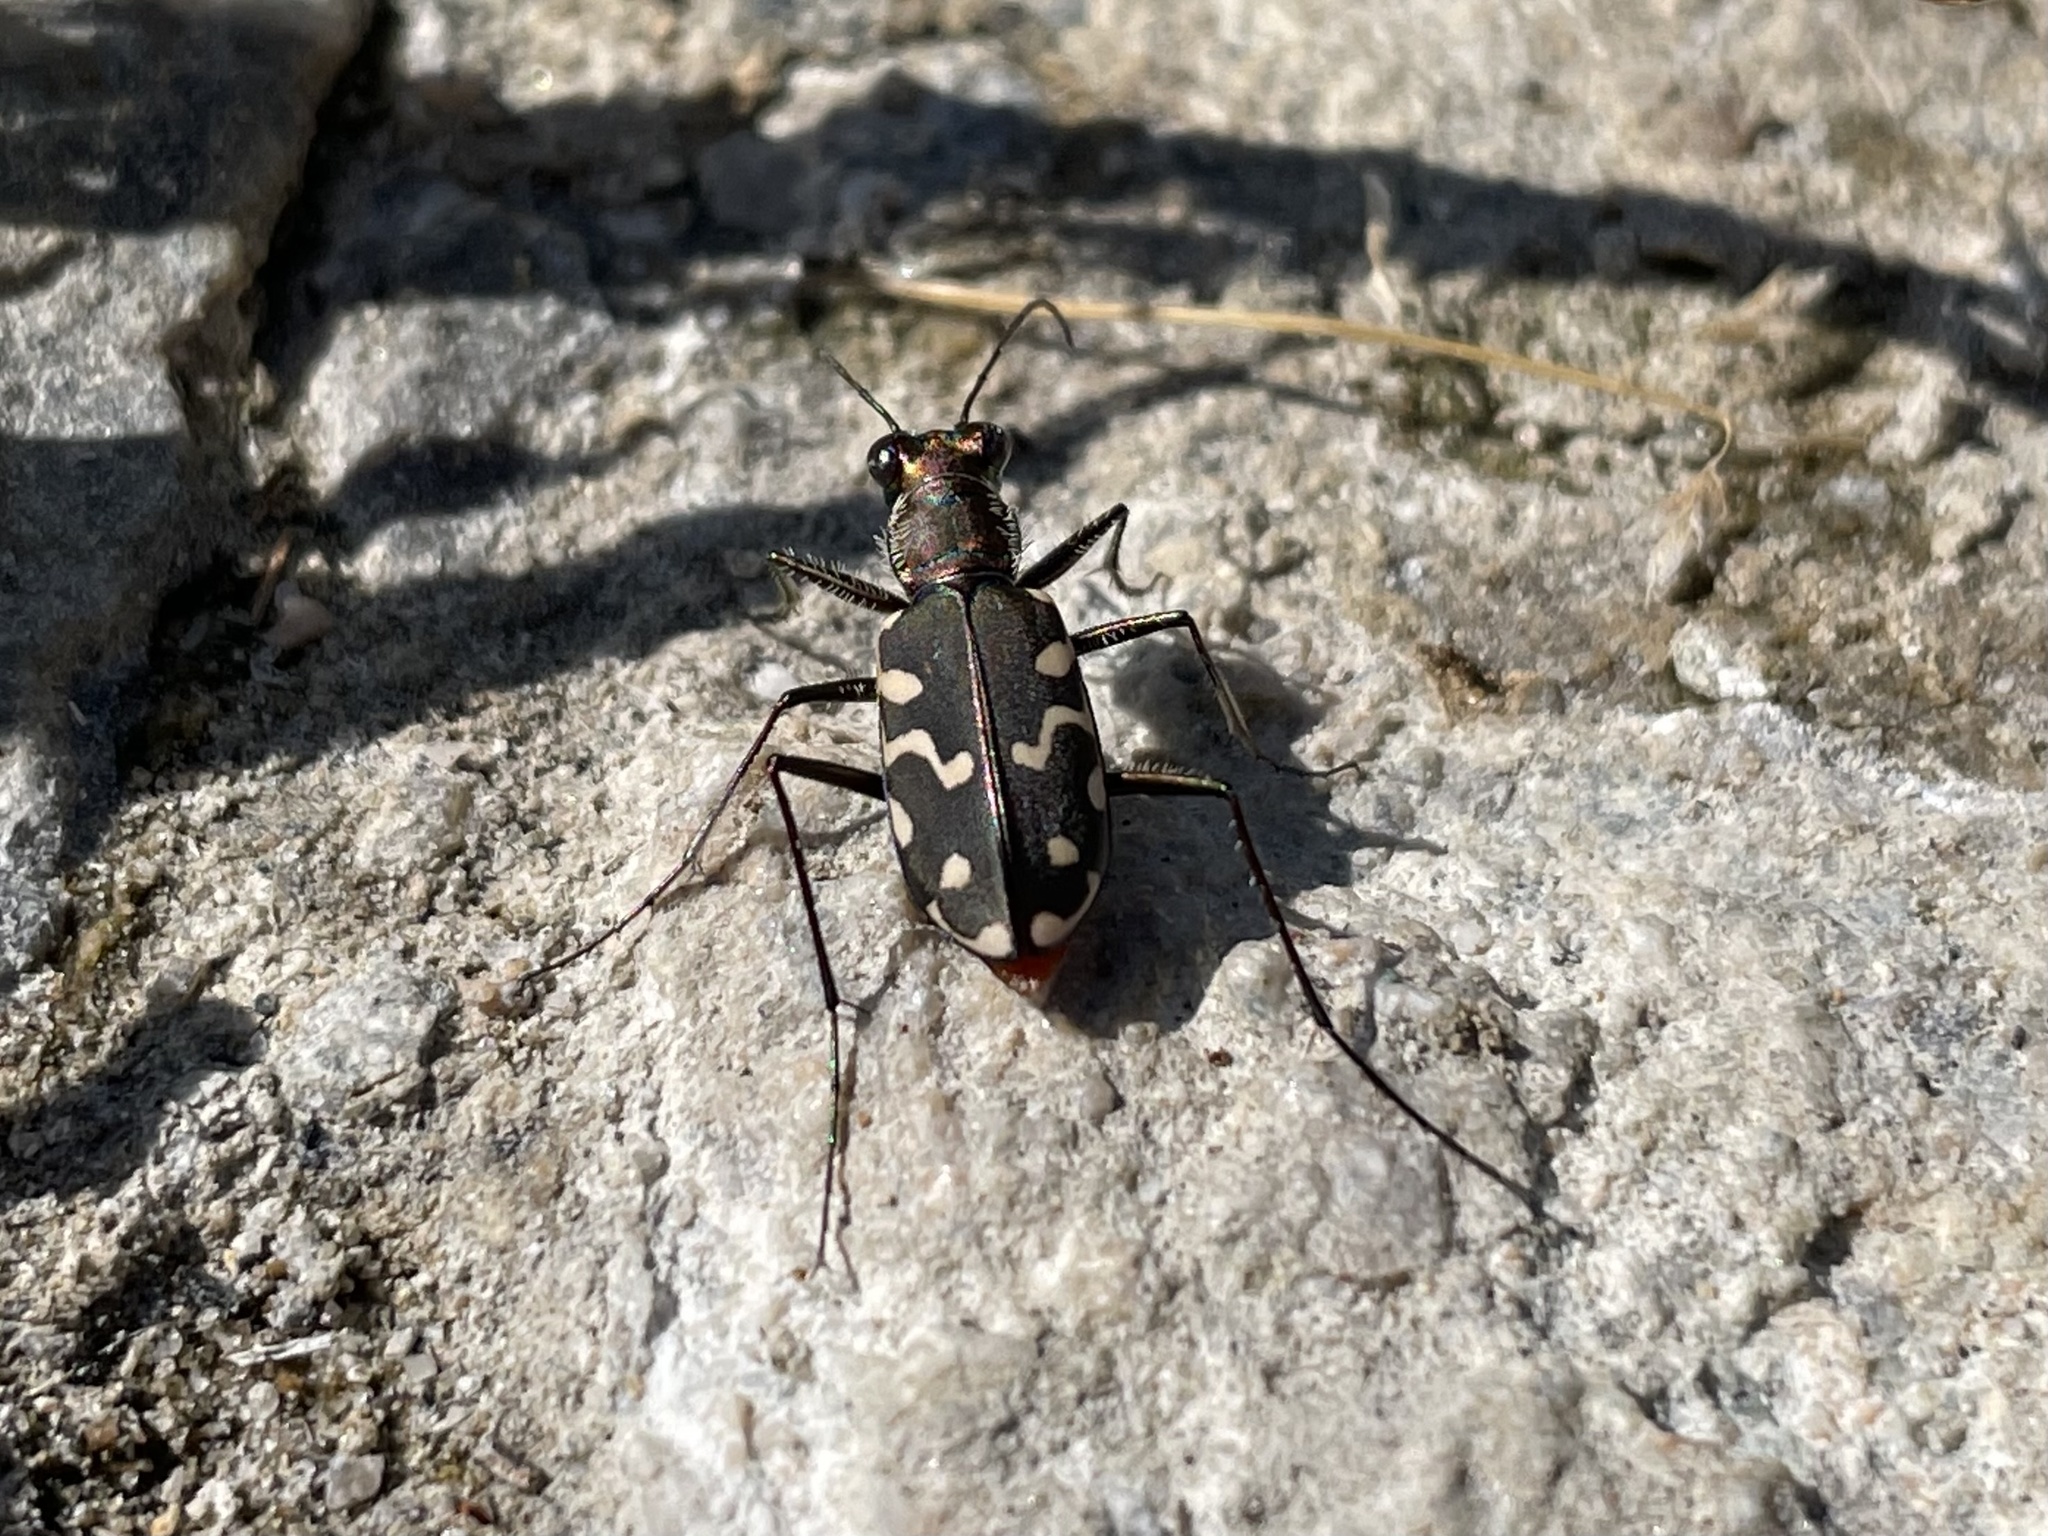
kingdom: Animalia
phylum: Arthropoda
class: Insecta
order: Coleoptera
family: Carabidae
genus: Cicindela
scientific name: Cicindela hemorrhagica
